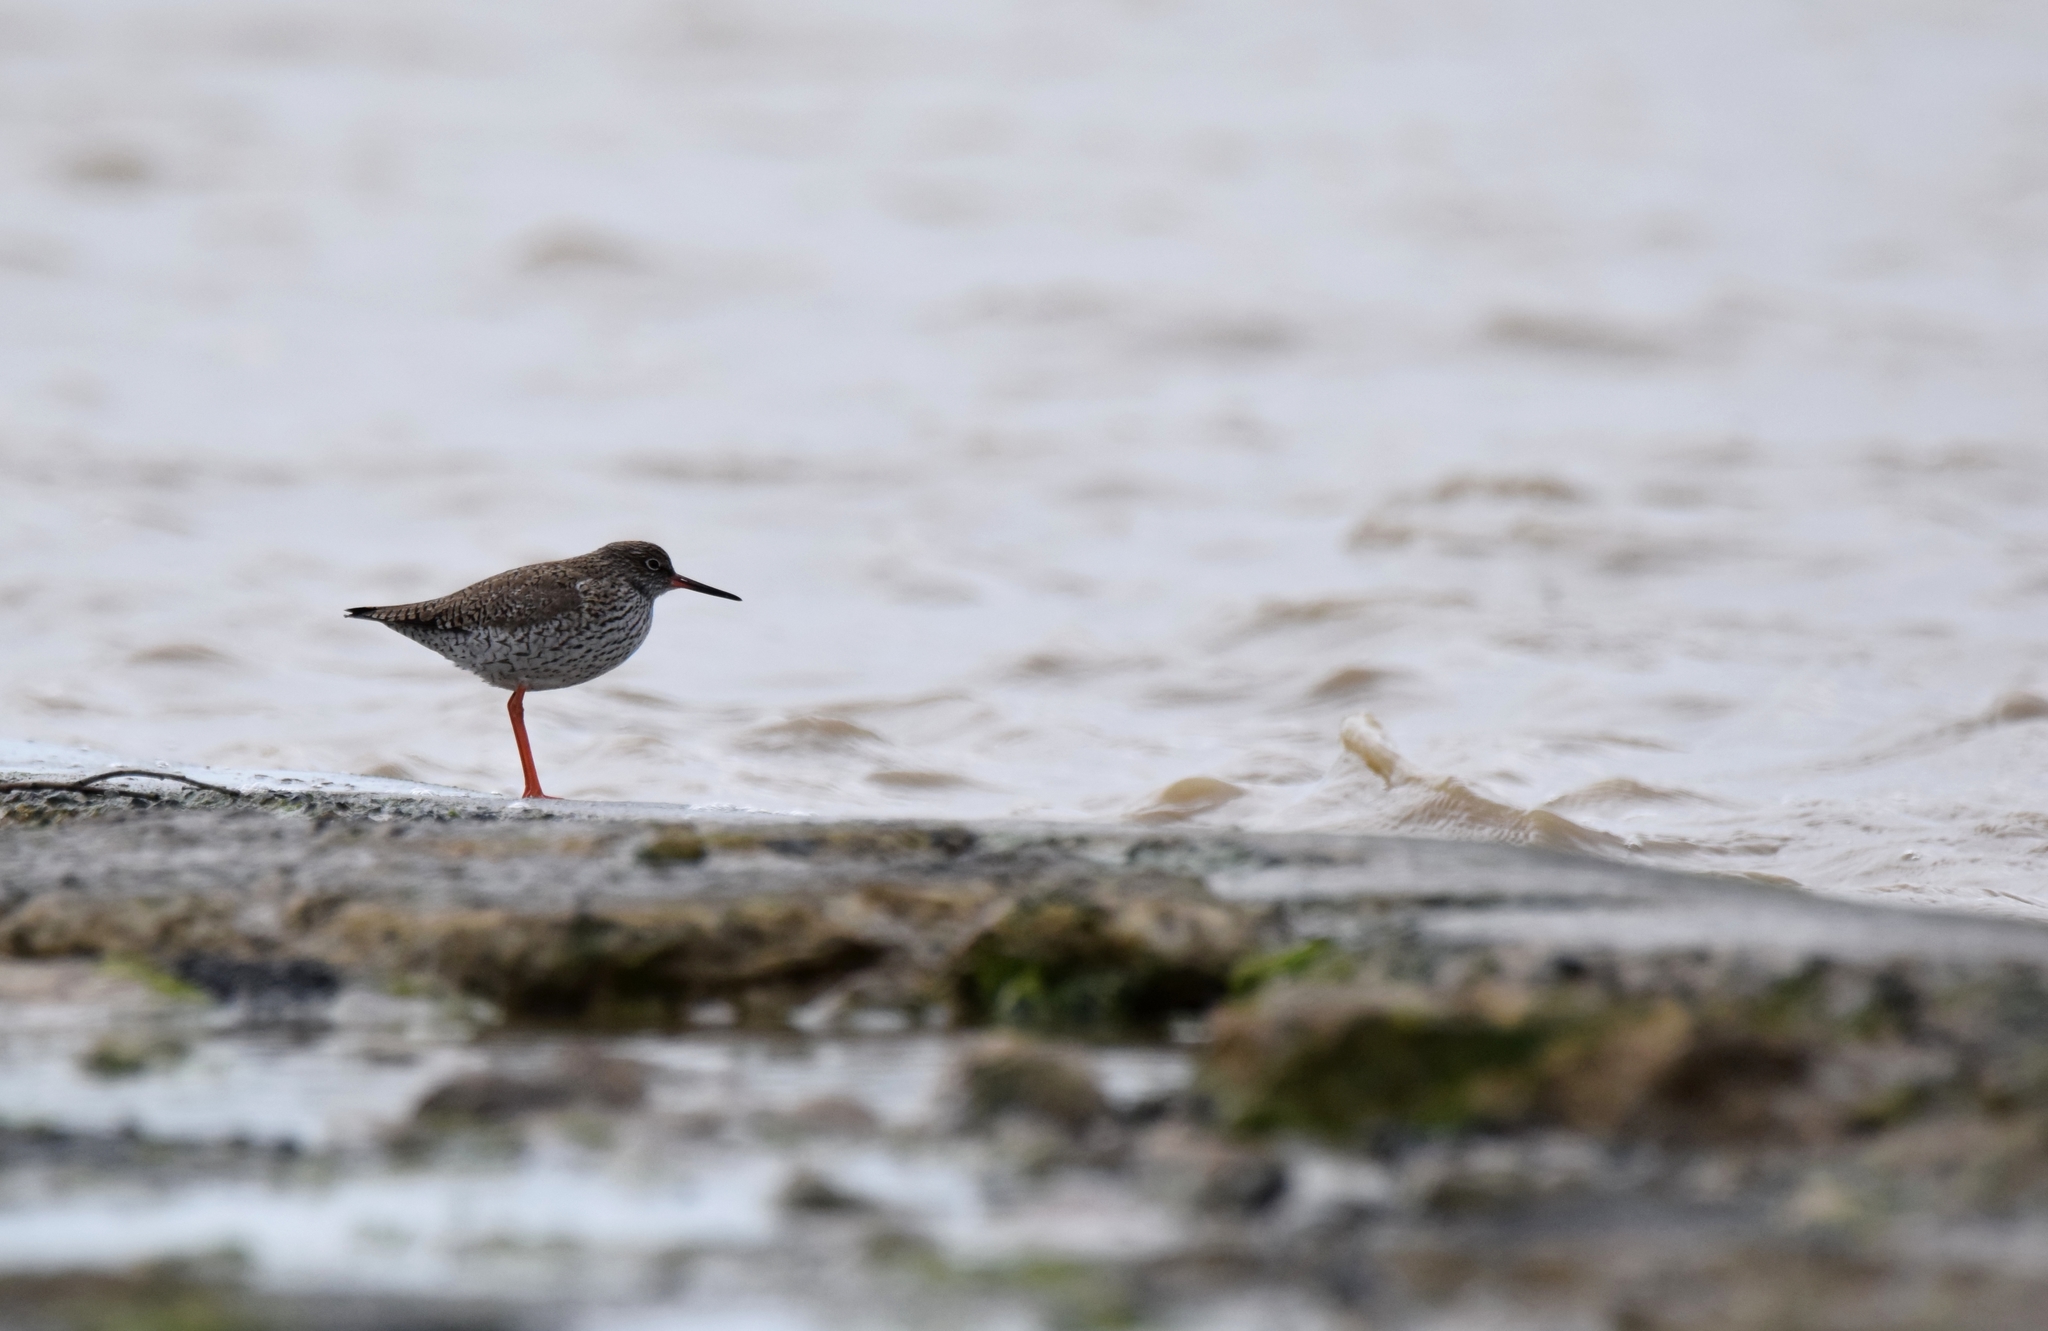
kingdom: Animalia
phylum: Chordata
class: Aves
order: Charadriiformes
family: Scolopacidae
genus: Tringa
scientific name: Tringa totanus
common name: Common redshank
